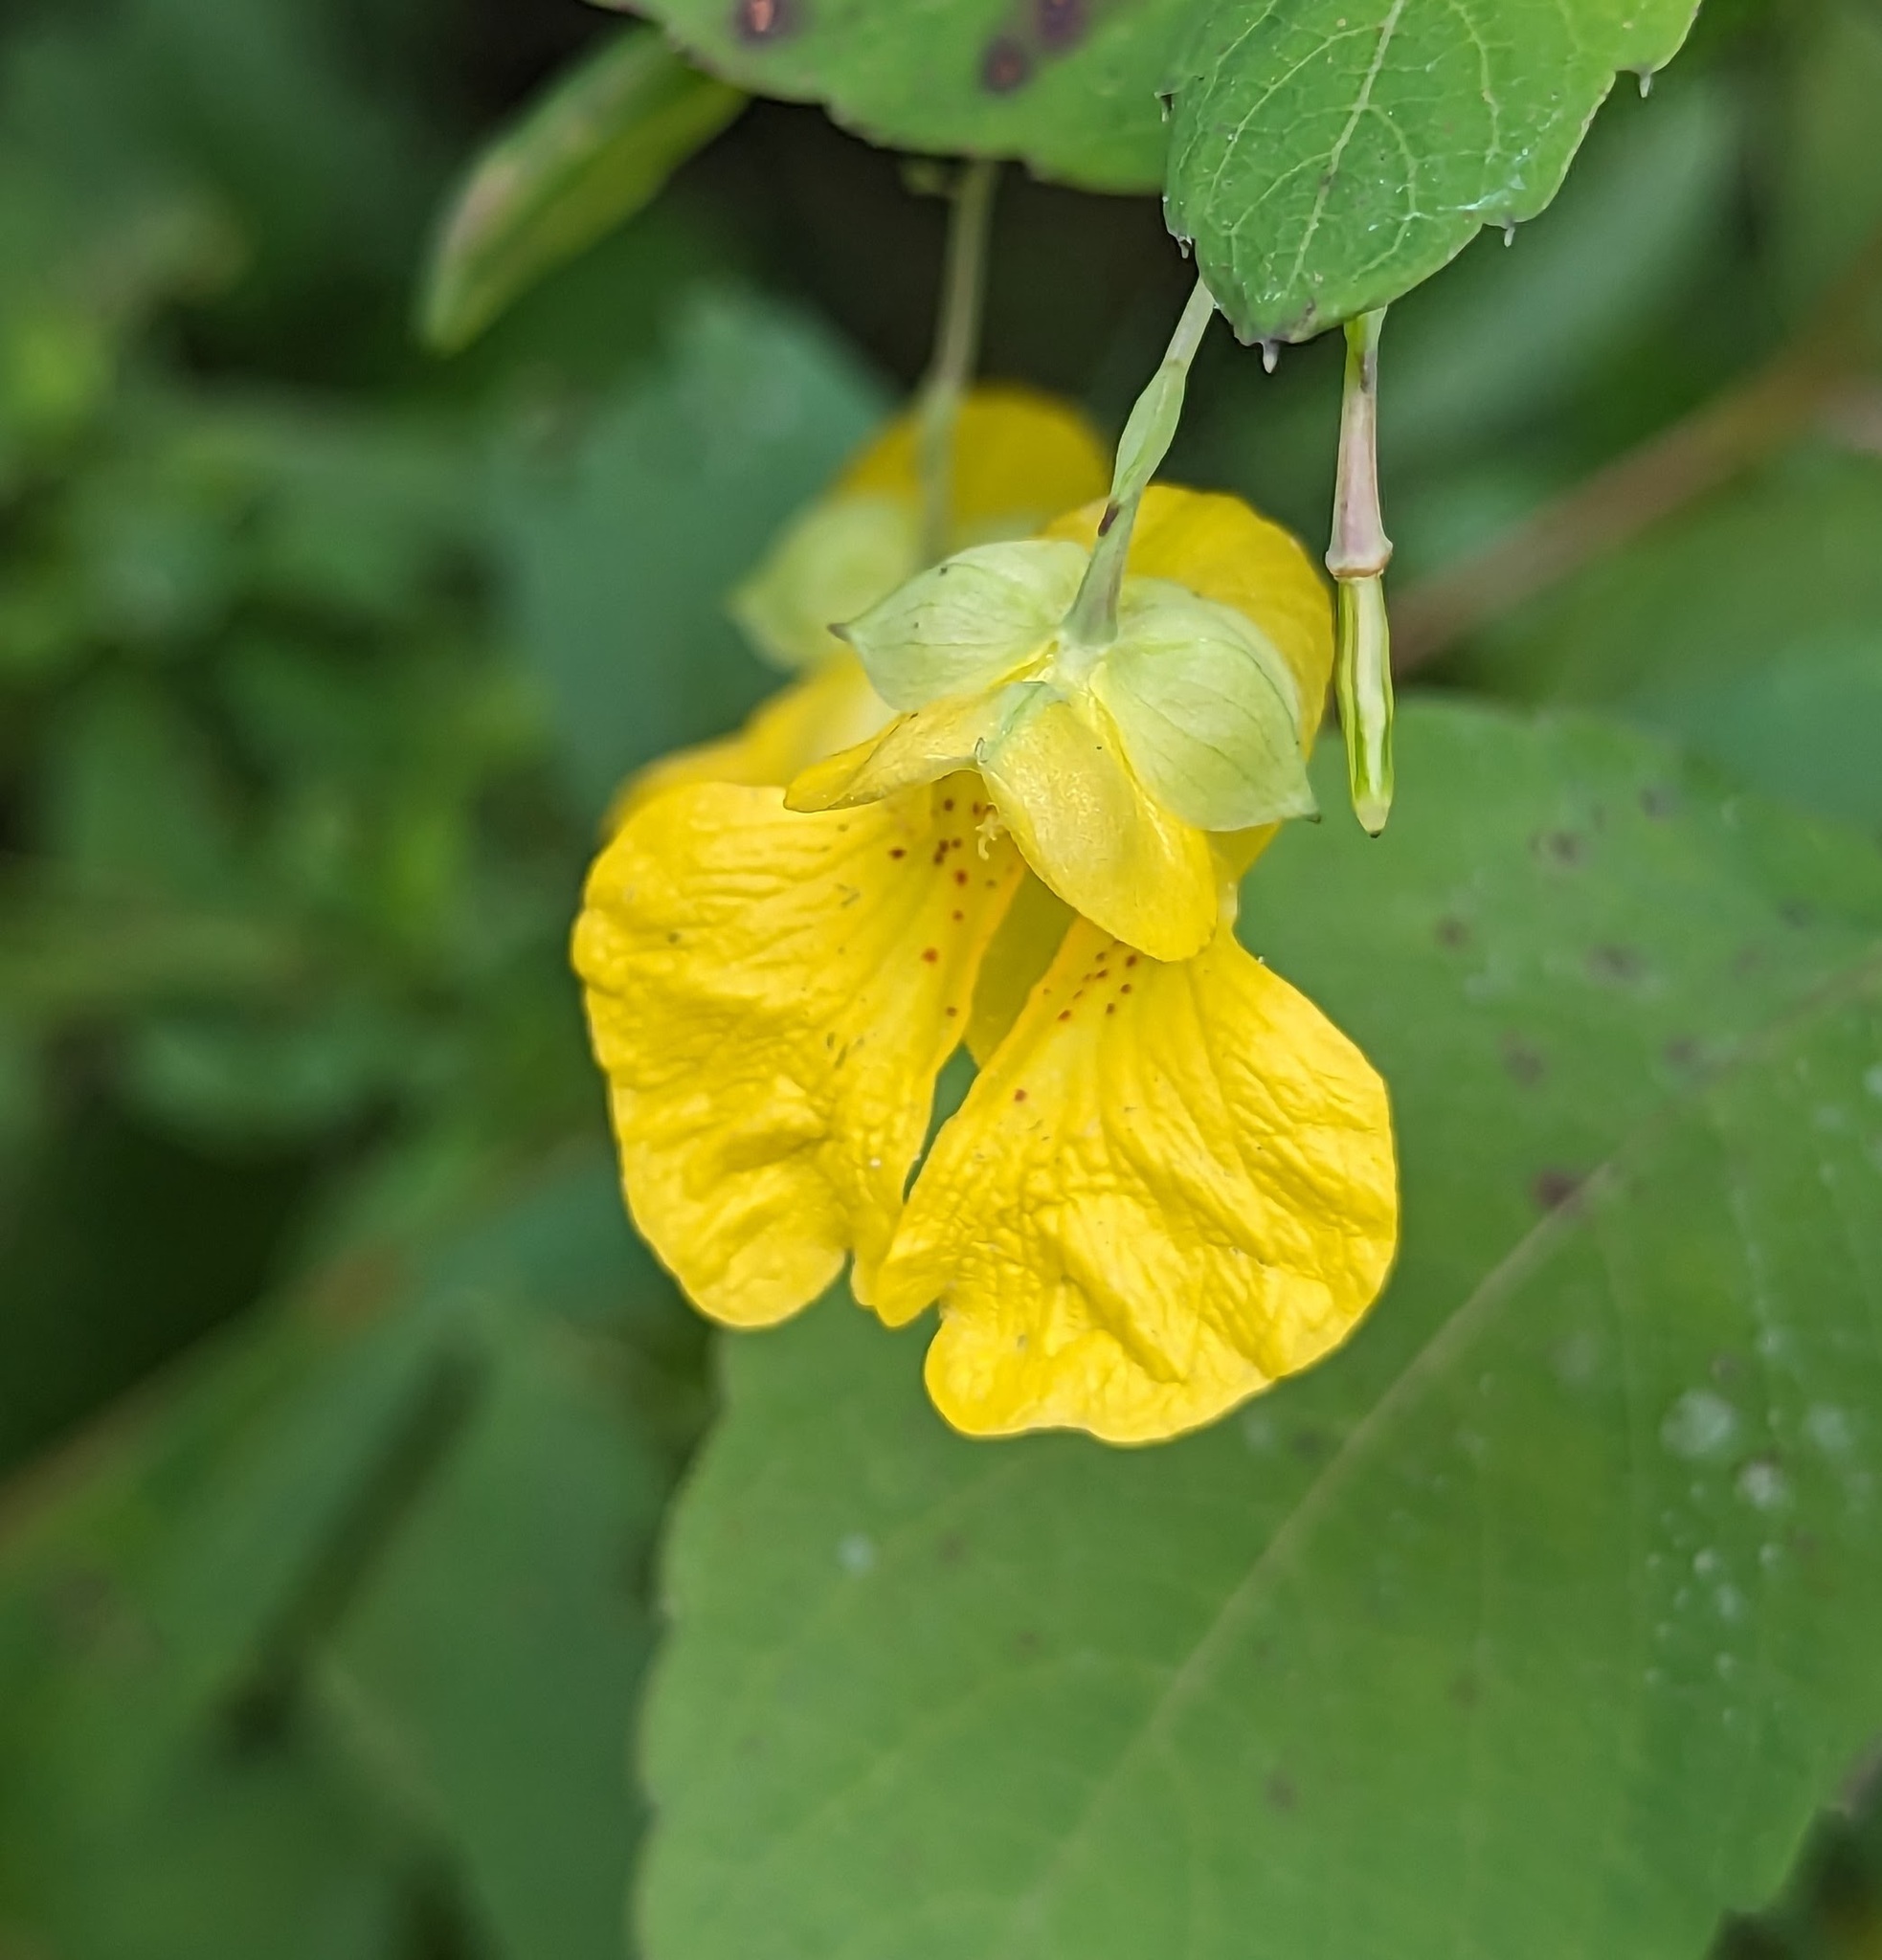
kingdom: Plantae
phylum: Tracheophyta
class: Magnoliopsida
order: Ericales
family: Balsaminaceae
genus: Impatiens
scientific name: Impatiens pallida
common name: Pale snapweed
